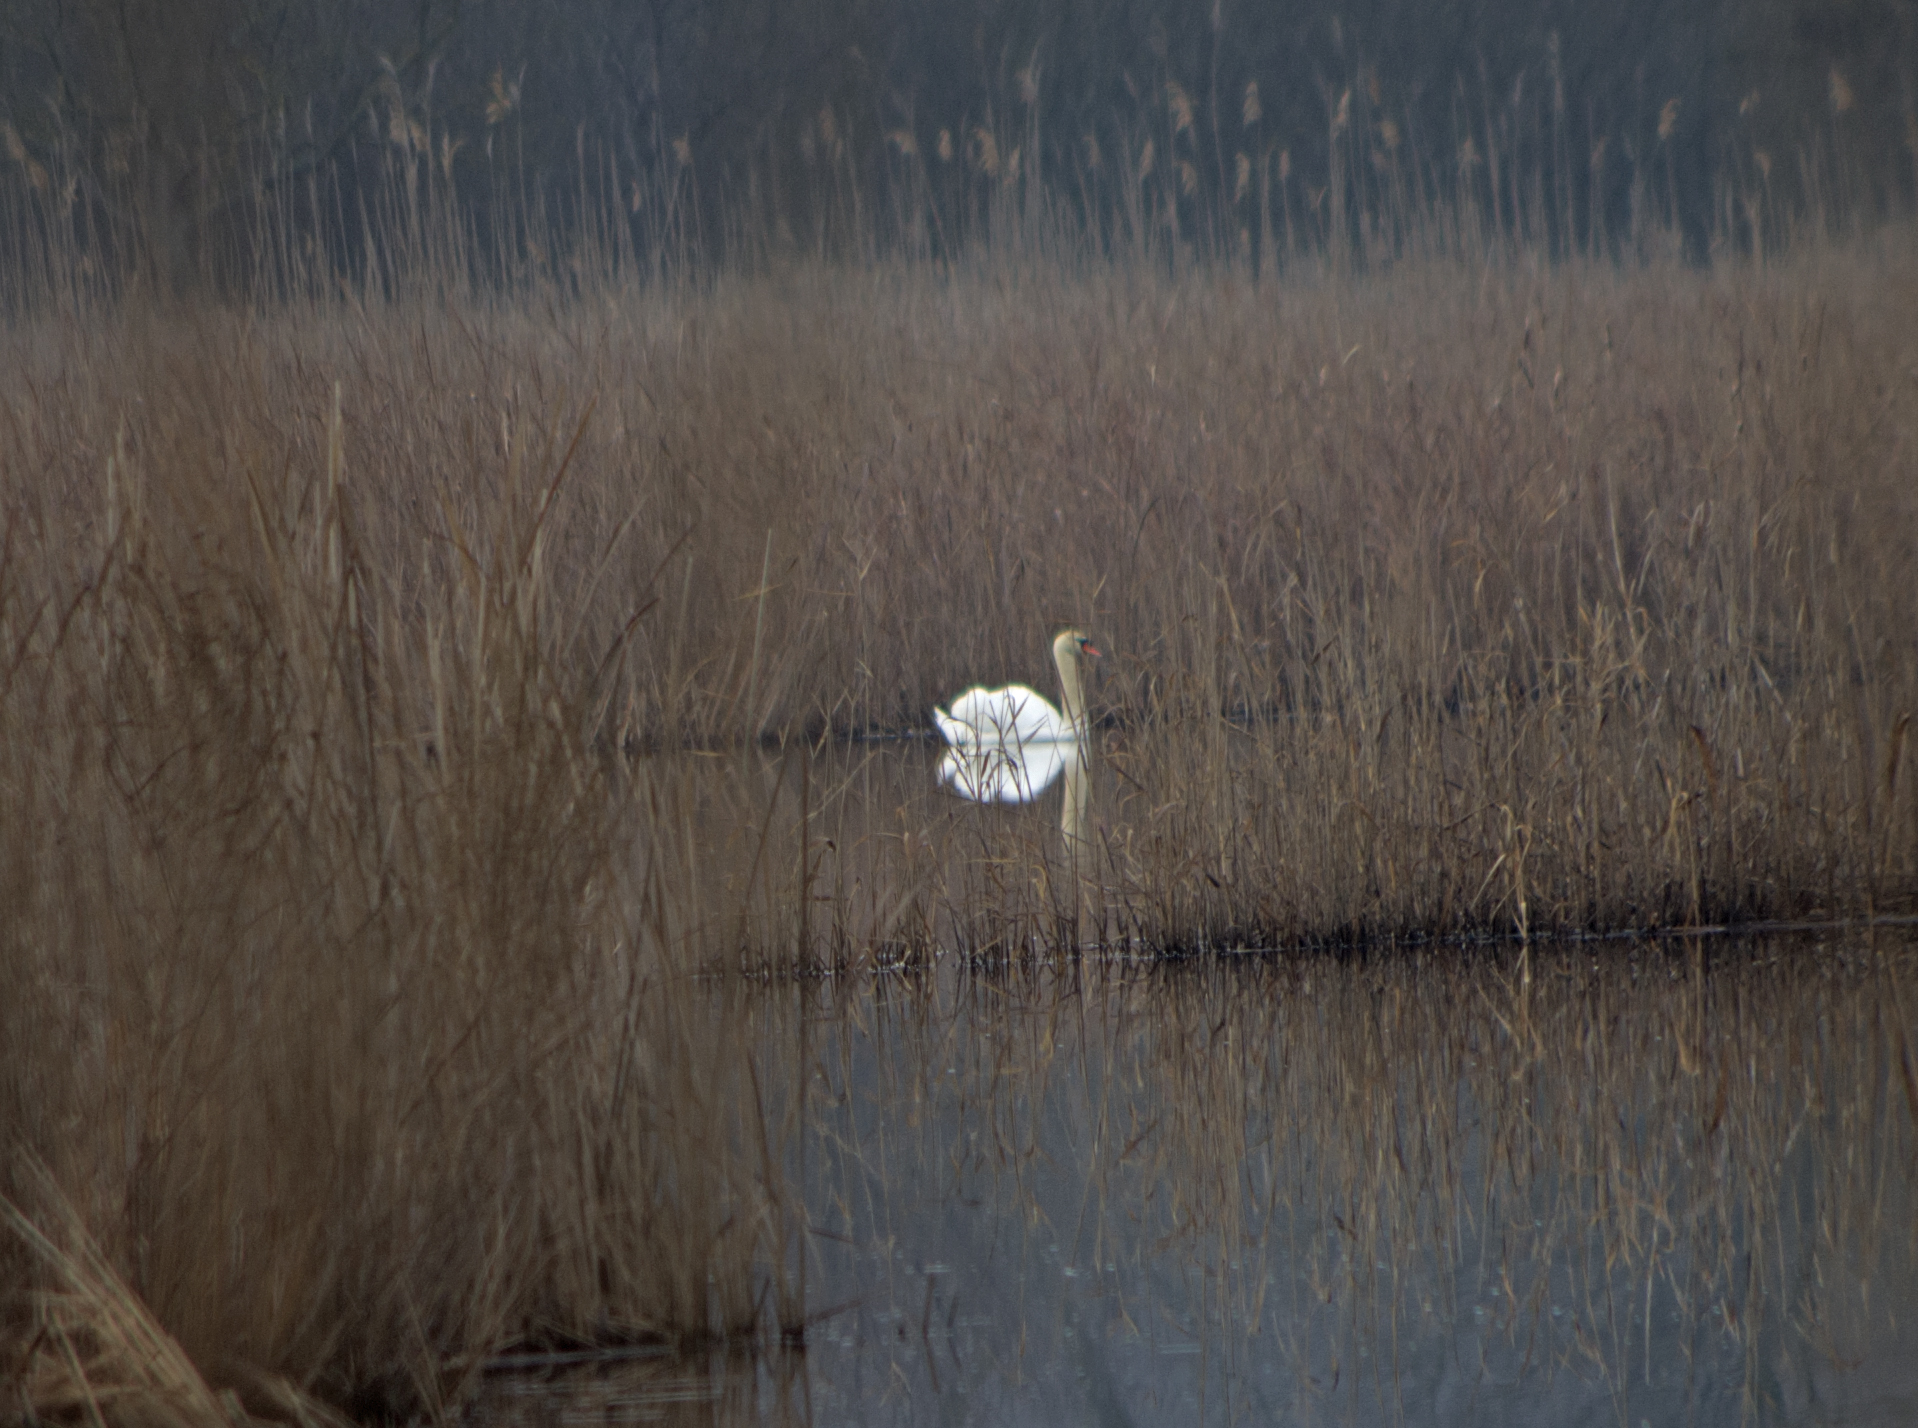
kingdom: Animalia
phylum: Chordata
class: Aves
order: Anseriformes
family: Anatidae
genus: Cygnus
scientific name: Cygnus olor
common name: Mute swan
